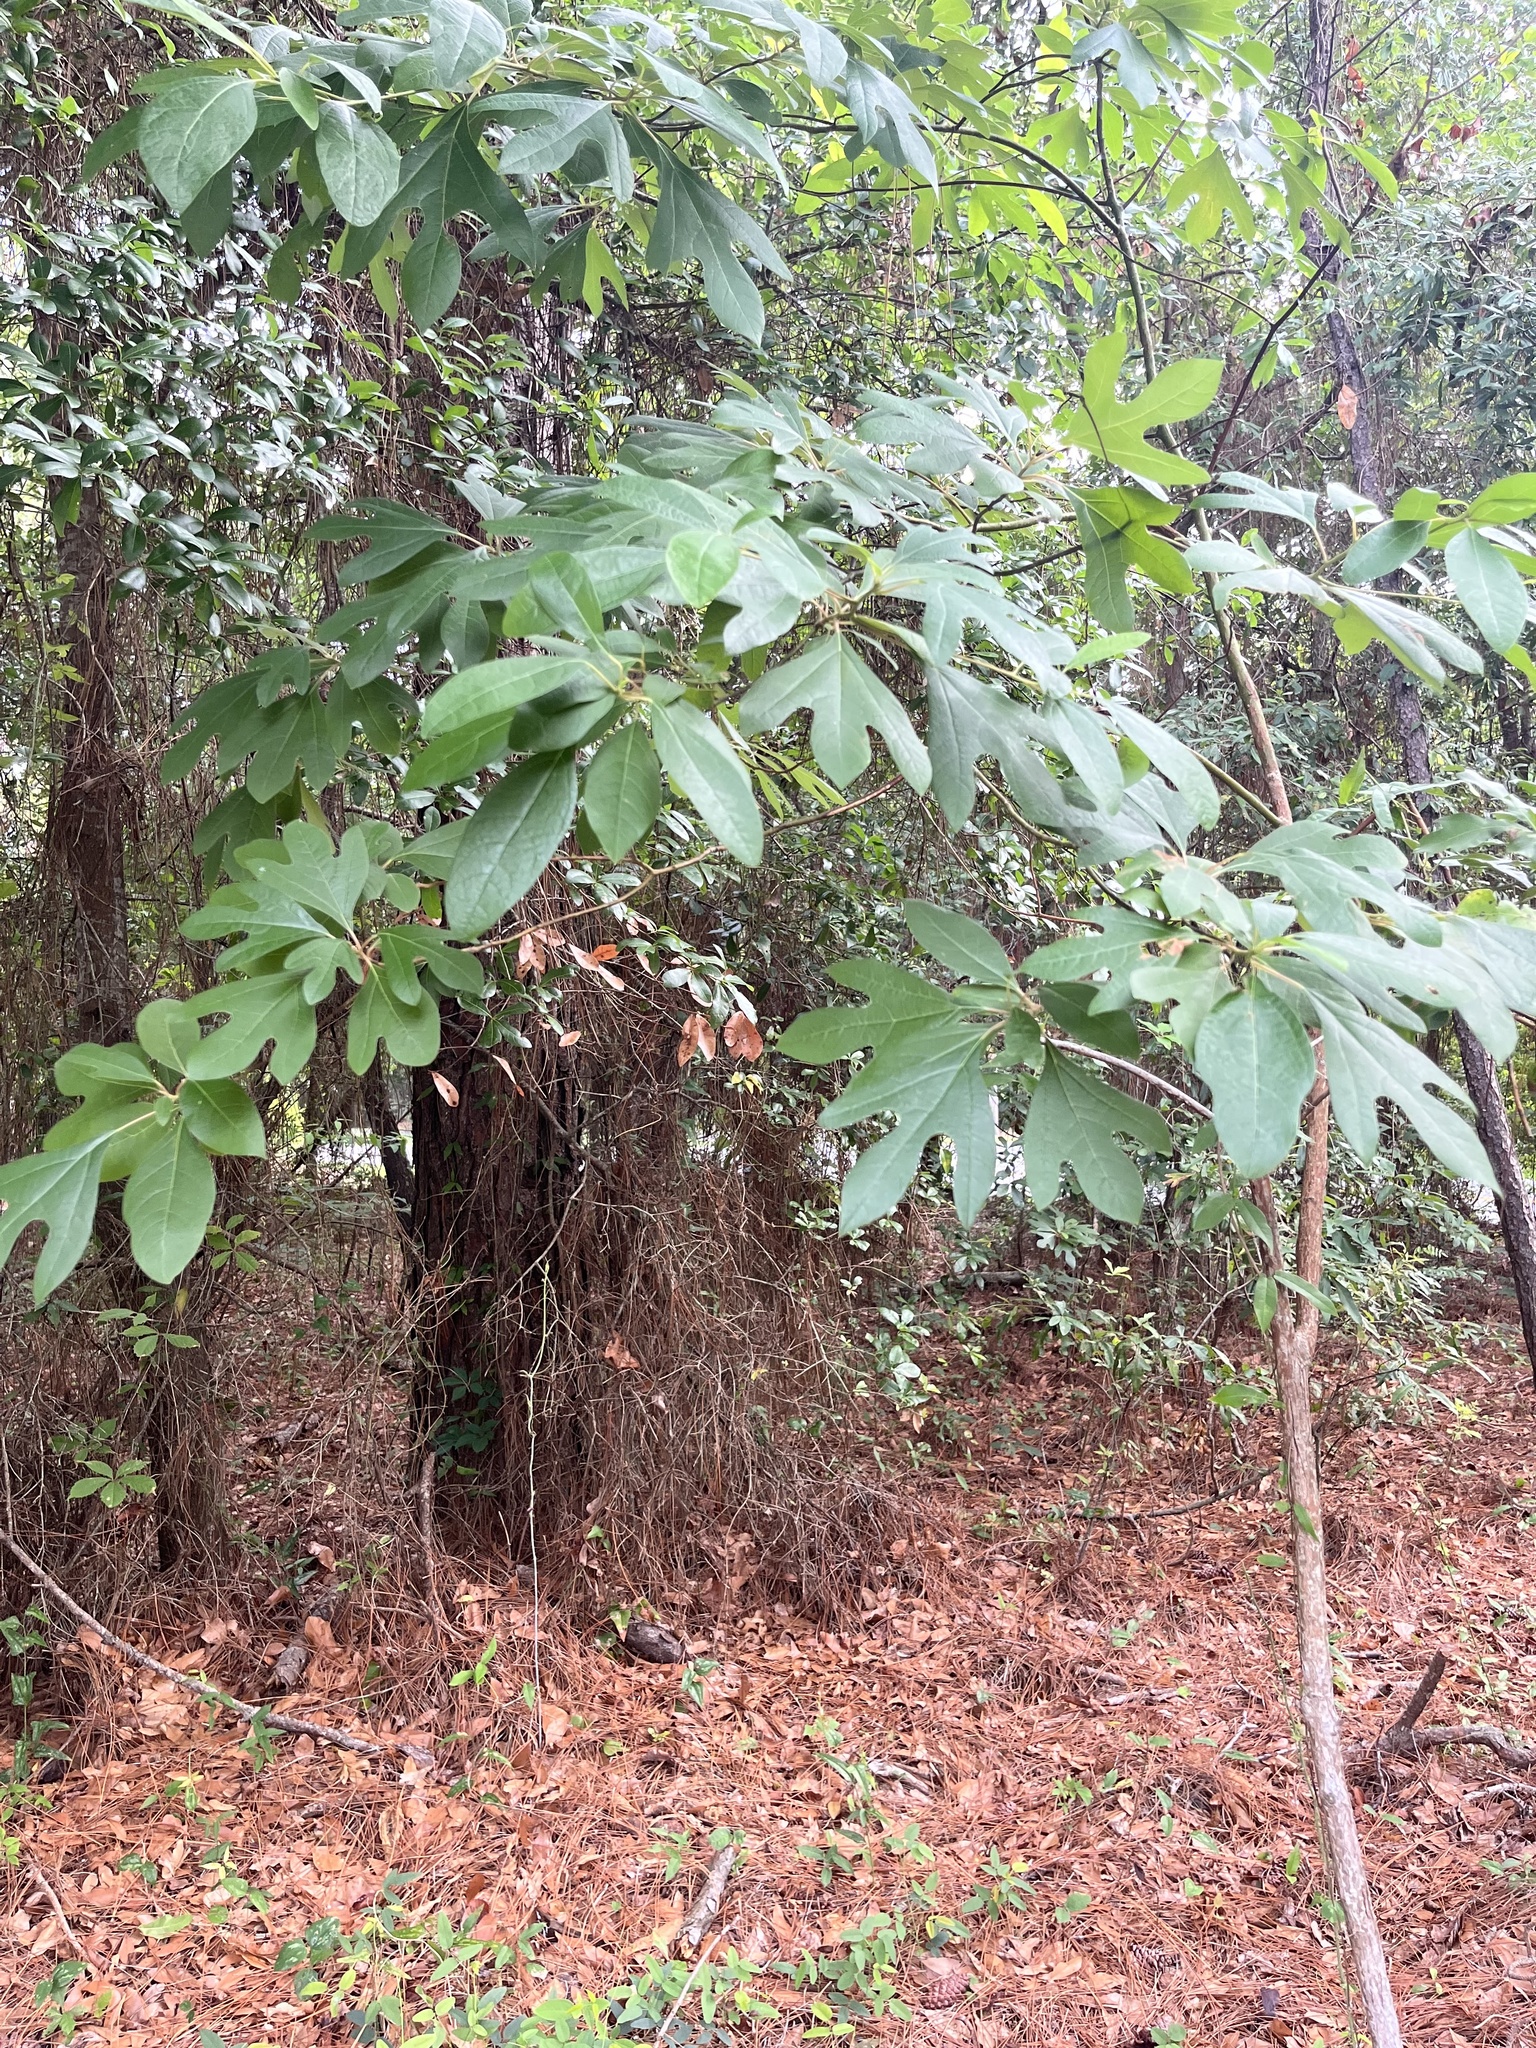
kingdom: Plantae
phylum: Tracheophyta
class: Magnoliopsida
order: Laurales
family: Lauraceae
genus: Sassafras
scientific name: Sassafras albidum
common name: Sassafras
